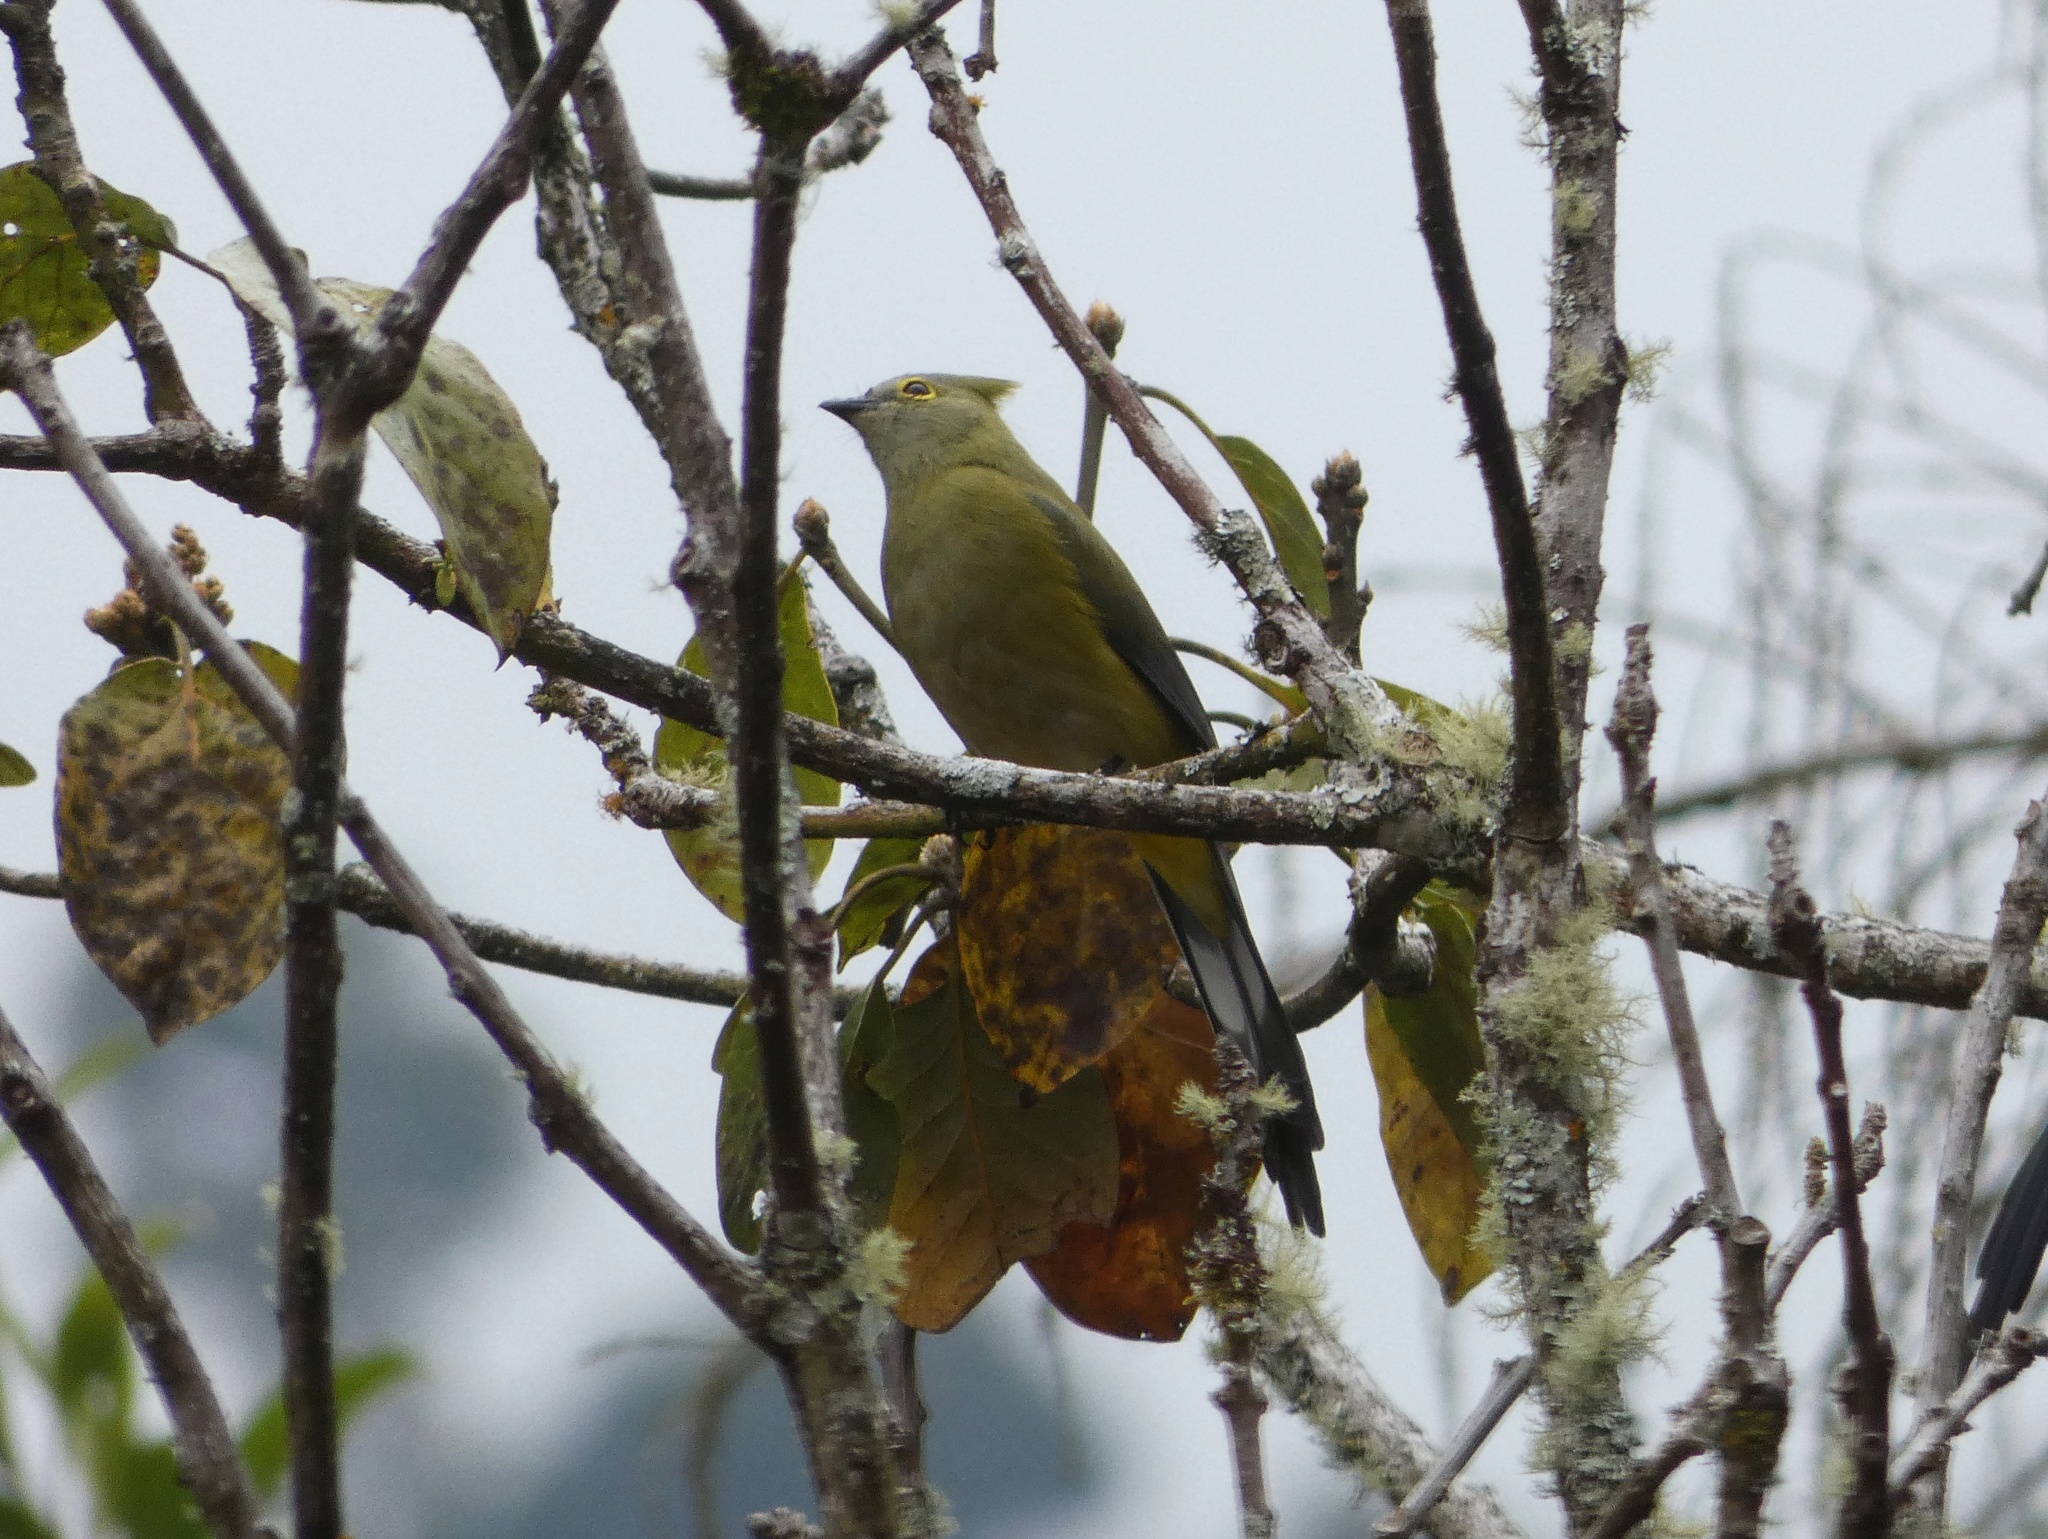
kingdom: Animalia
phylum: Chordata
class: Aves
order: Passeriformes
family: Ptilogonatidae
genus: Ptilogonys
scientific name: Ptilogonys caudatus
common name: Long-tailed silky-flycatcher
